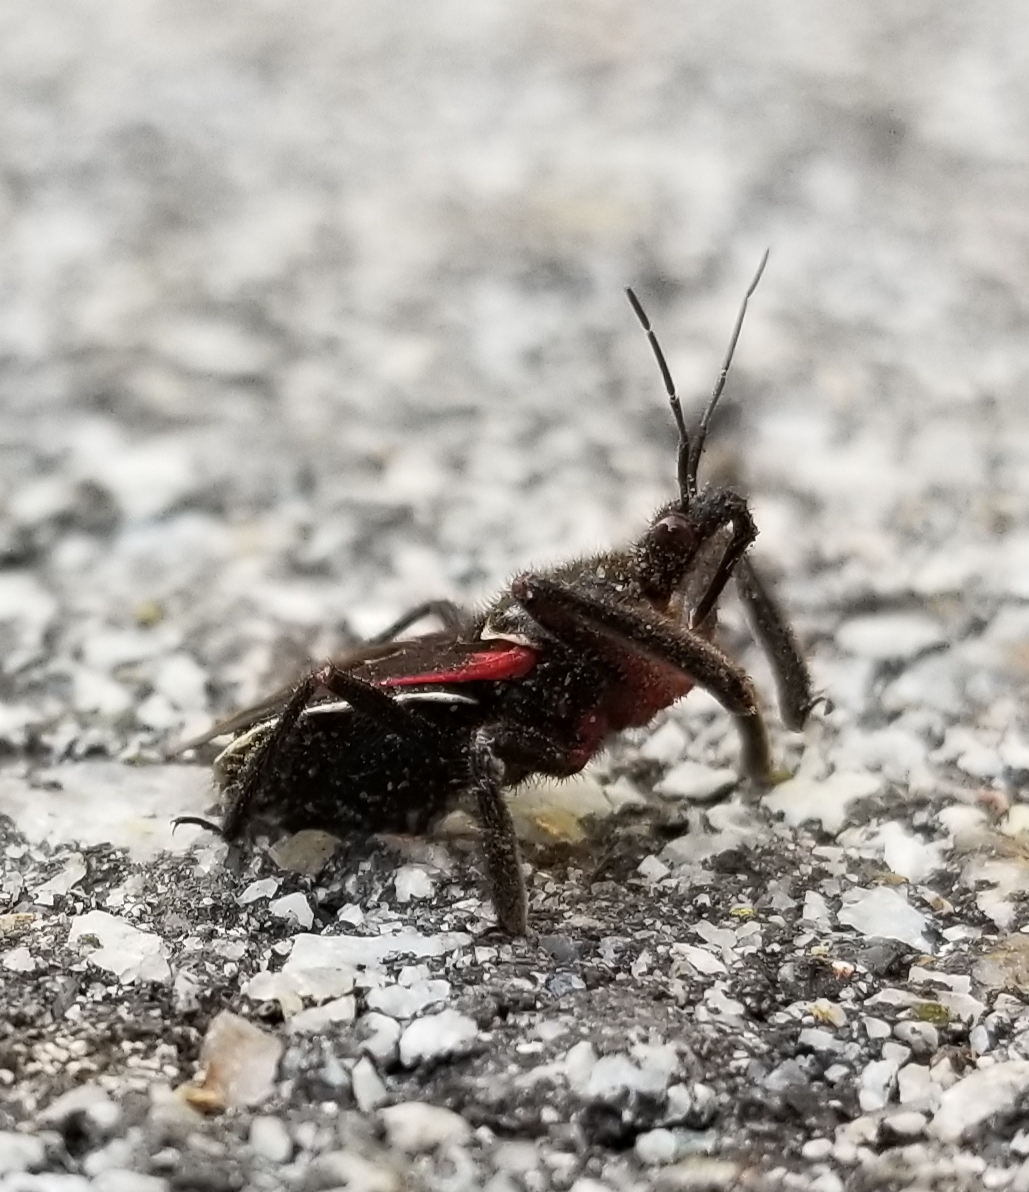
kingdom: Animalia
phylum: Arthropoda
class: Insecta
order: Hemiptera
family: Reduviidae
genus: Apiomerus
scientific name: Apiomerus californicus
